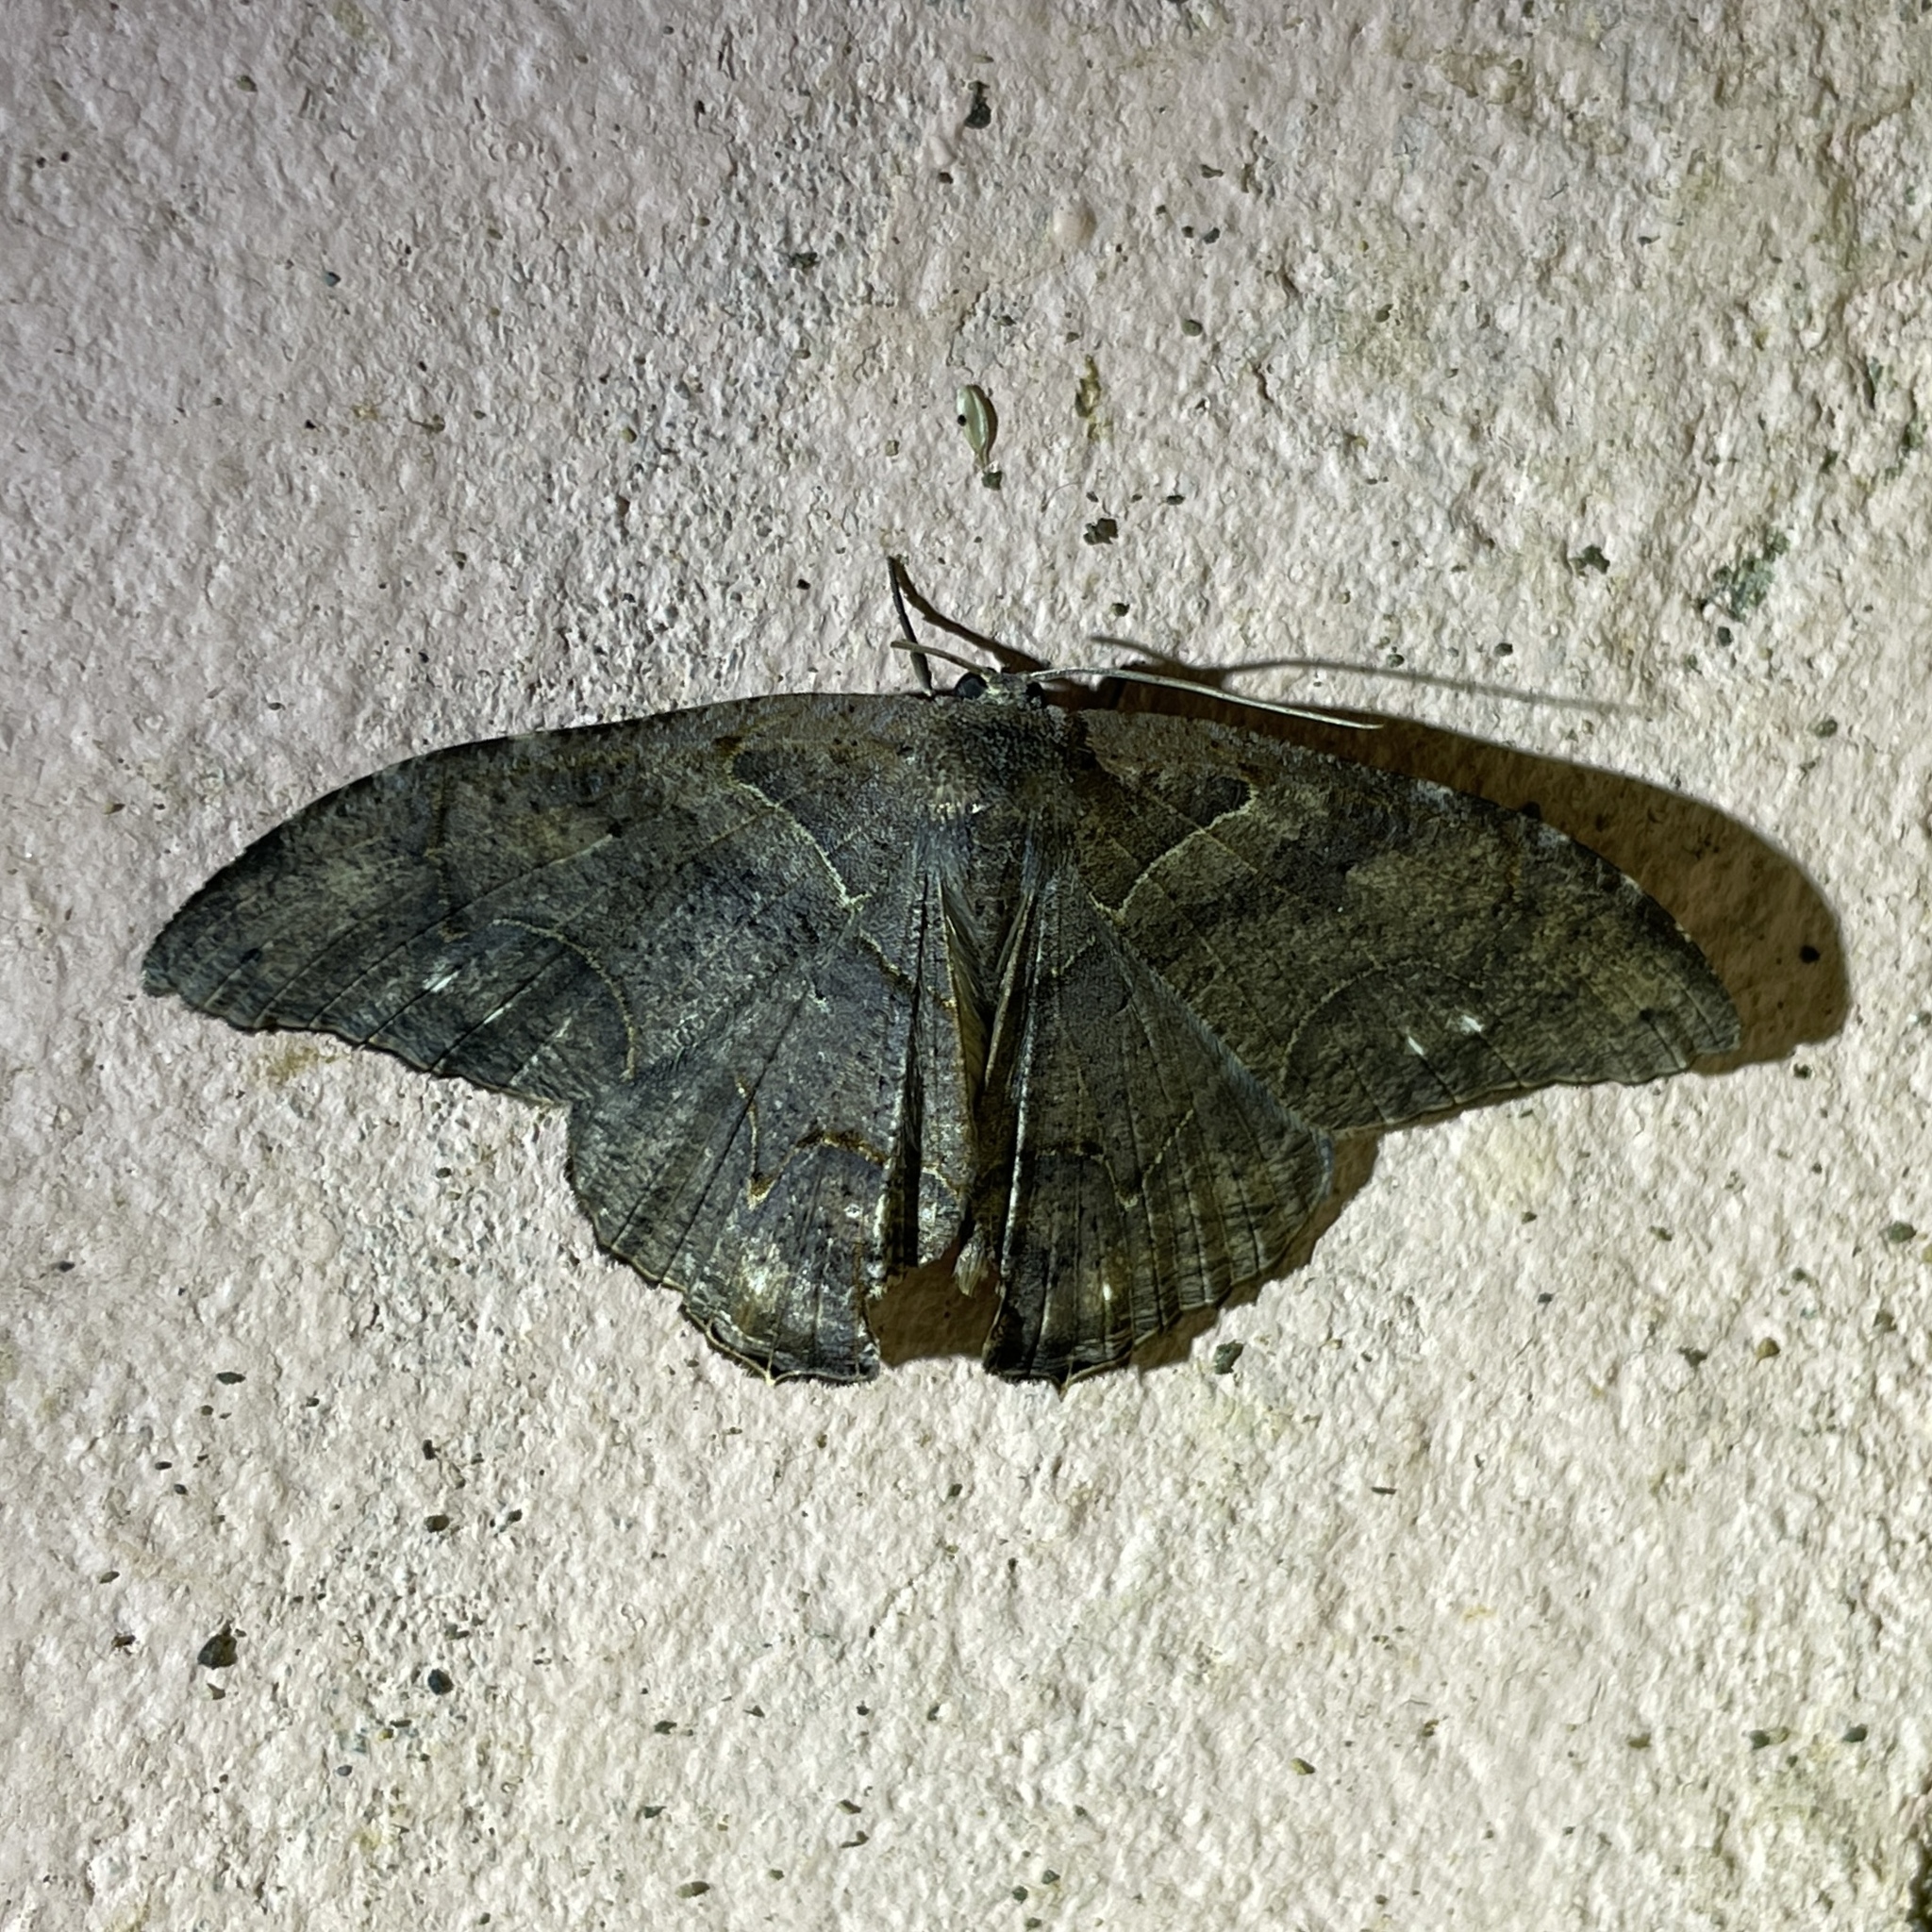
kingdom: Animalia
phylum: Arthropoda
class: Insecta
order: Lepidoptera
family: Uraniidae
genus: Syngria
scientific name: Syngria druidaria
